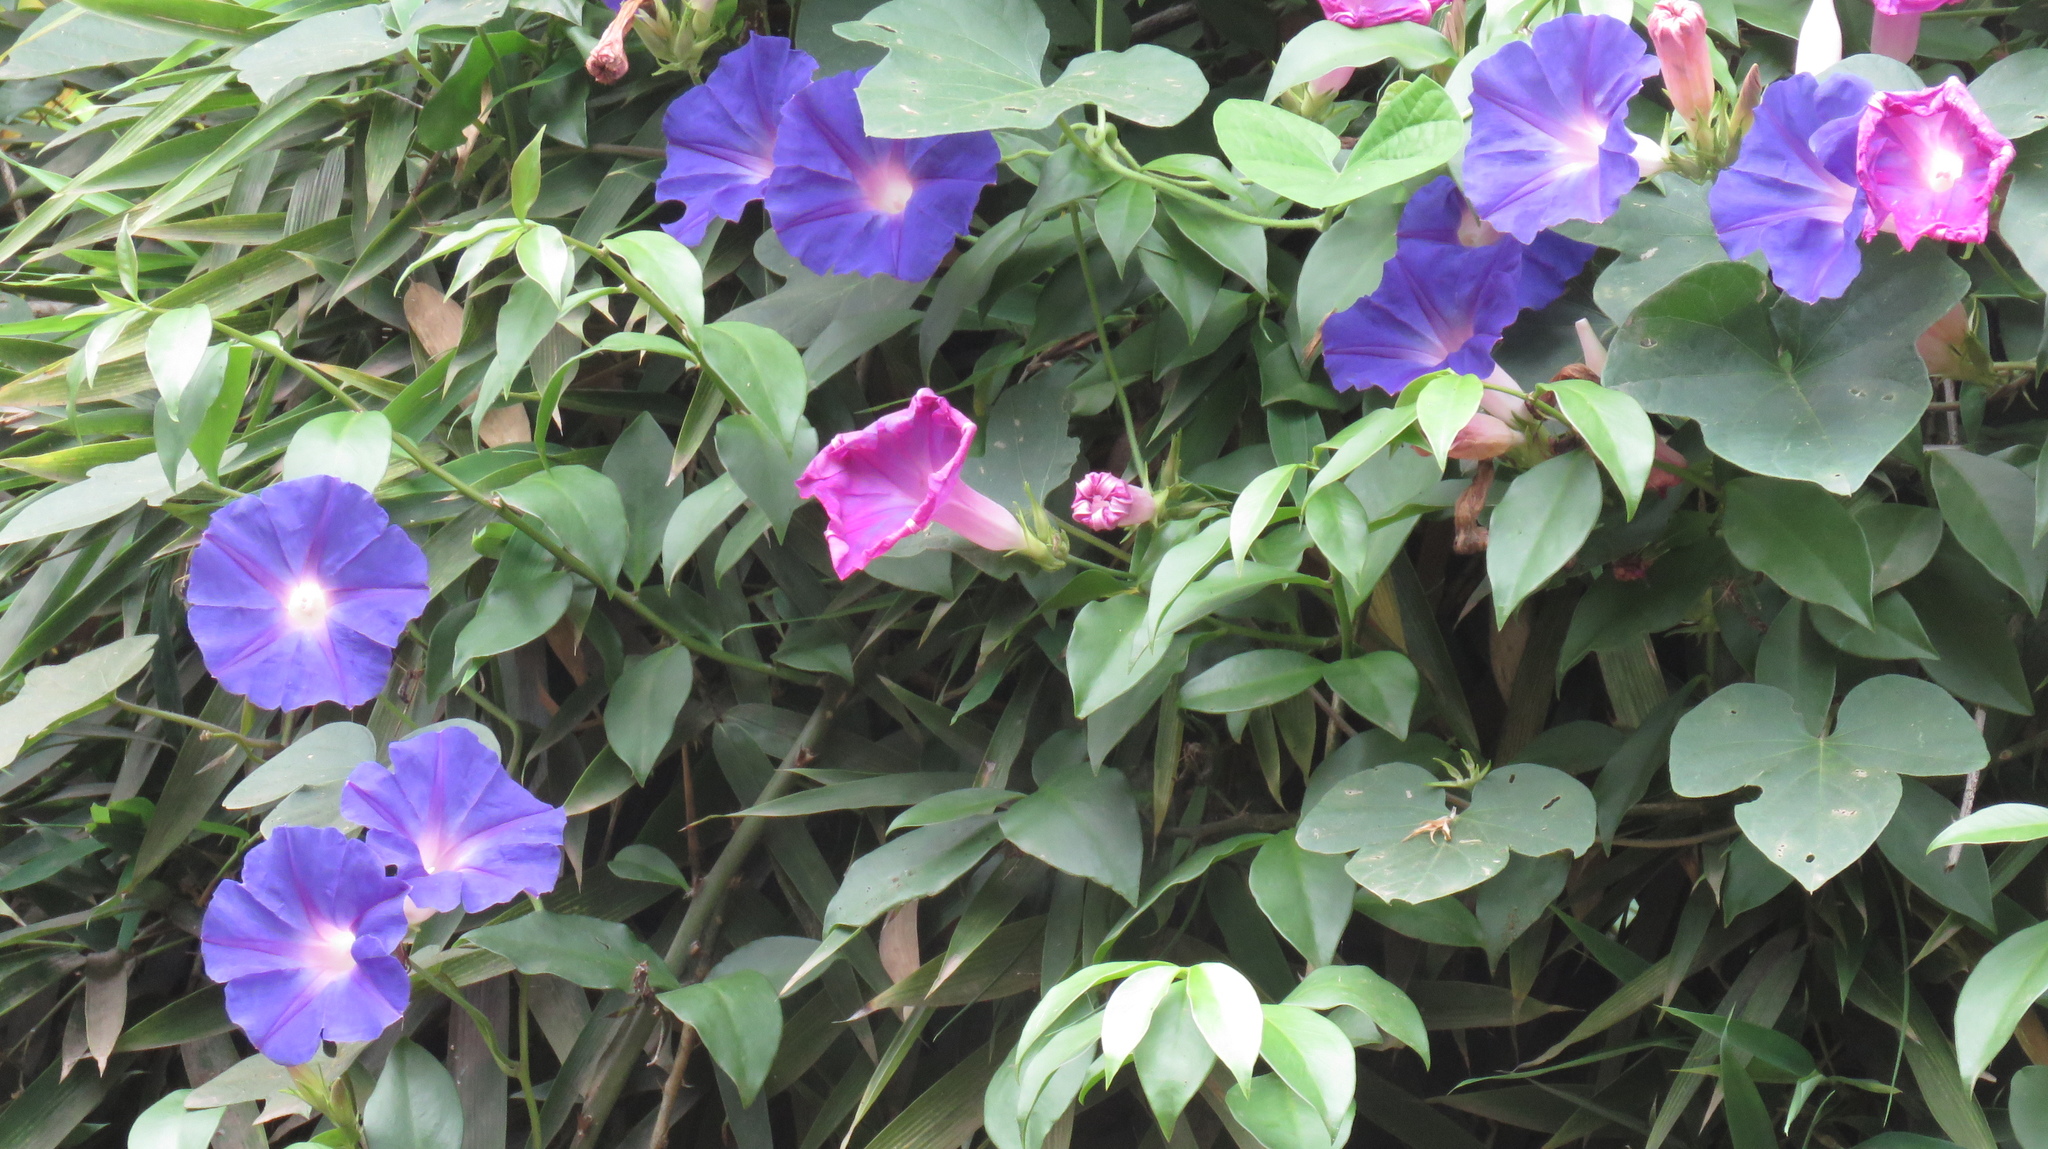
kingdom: Plantae
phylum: Tracheophyta
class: Magnoliopsida
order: Solanales
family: Convolvulaceae
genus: Ipomoea
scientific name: Ipomoea indica
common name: Blue dawnflower
